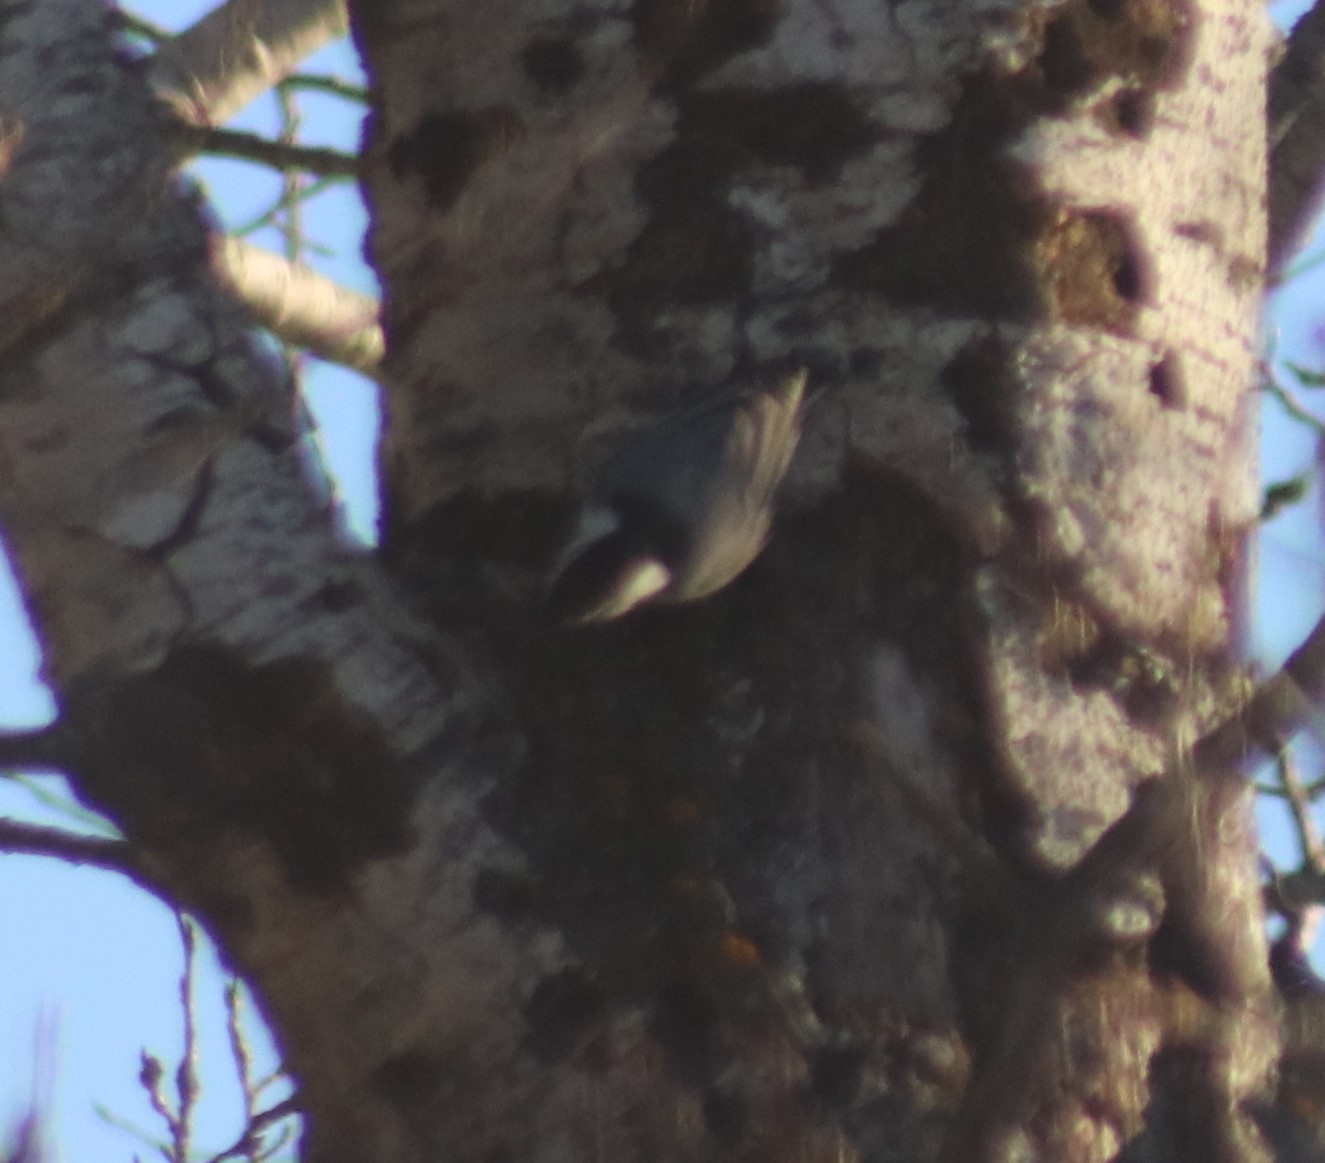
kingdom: Animalia
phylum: Chordata
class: Aves
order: Passeriformes
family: Sittidae
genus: Sitta
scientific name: Sitta carolinensis
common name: White-breasted nuthatch
